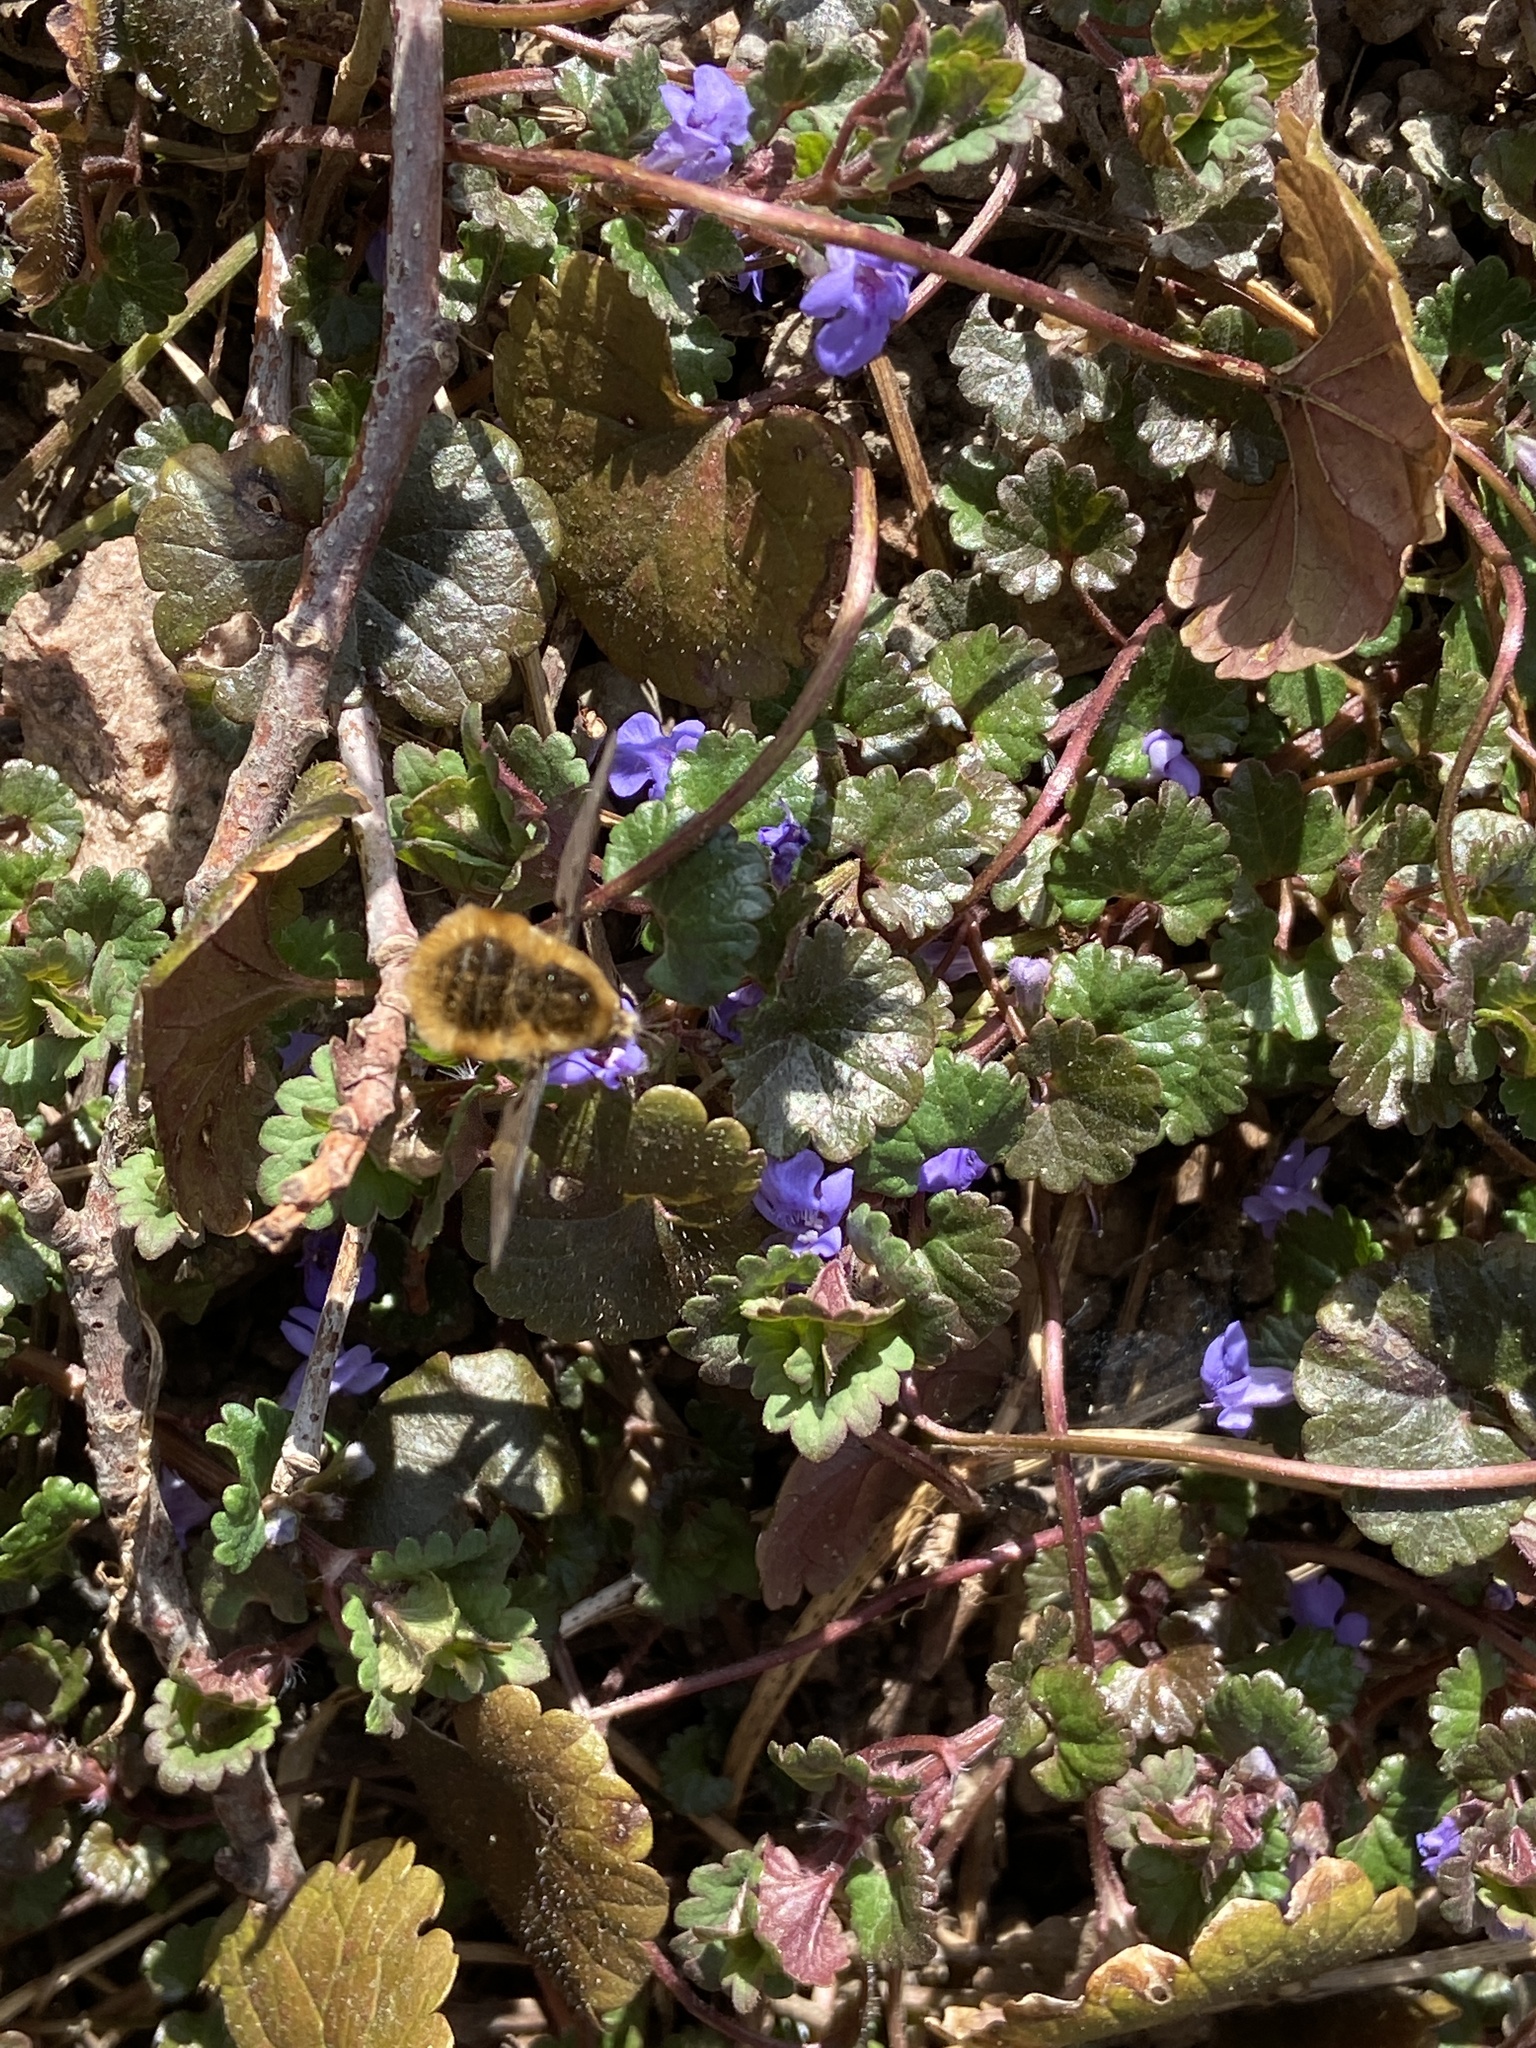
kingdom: Animalia
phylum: Arthropoda
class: Insecta
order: Diptera
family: Bombyliidae
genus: Bombylius
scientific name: Bombylius major
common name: Bee fly
